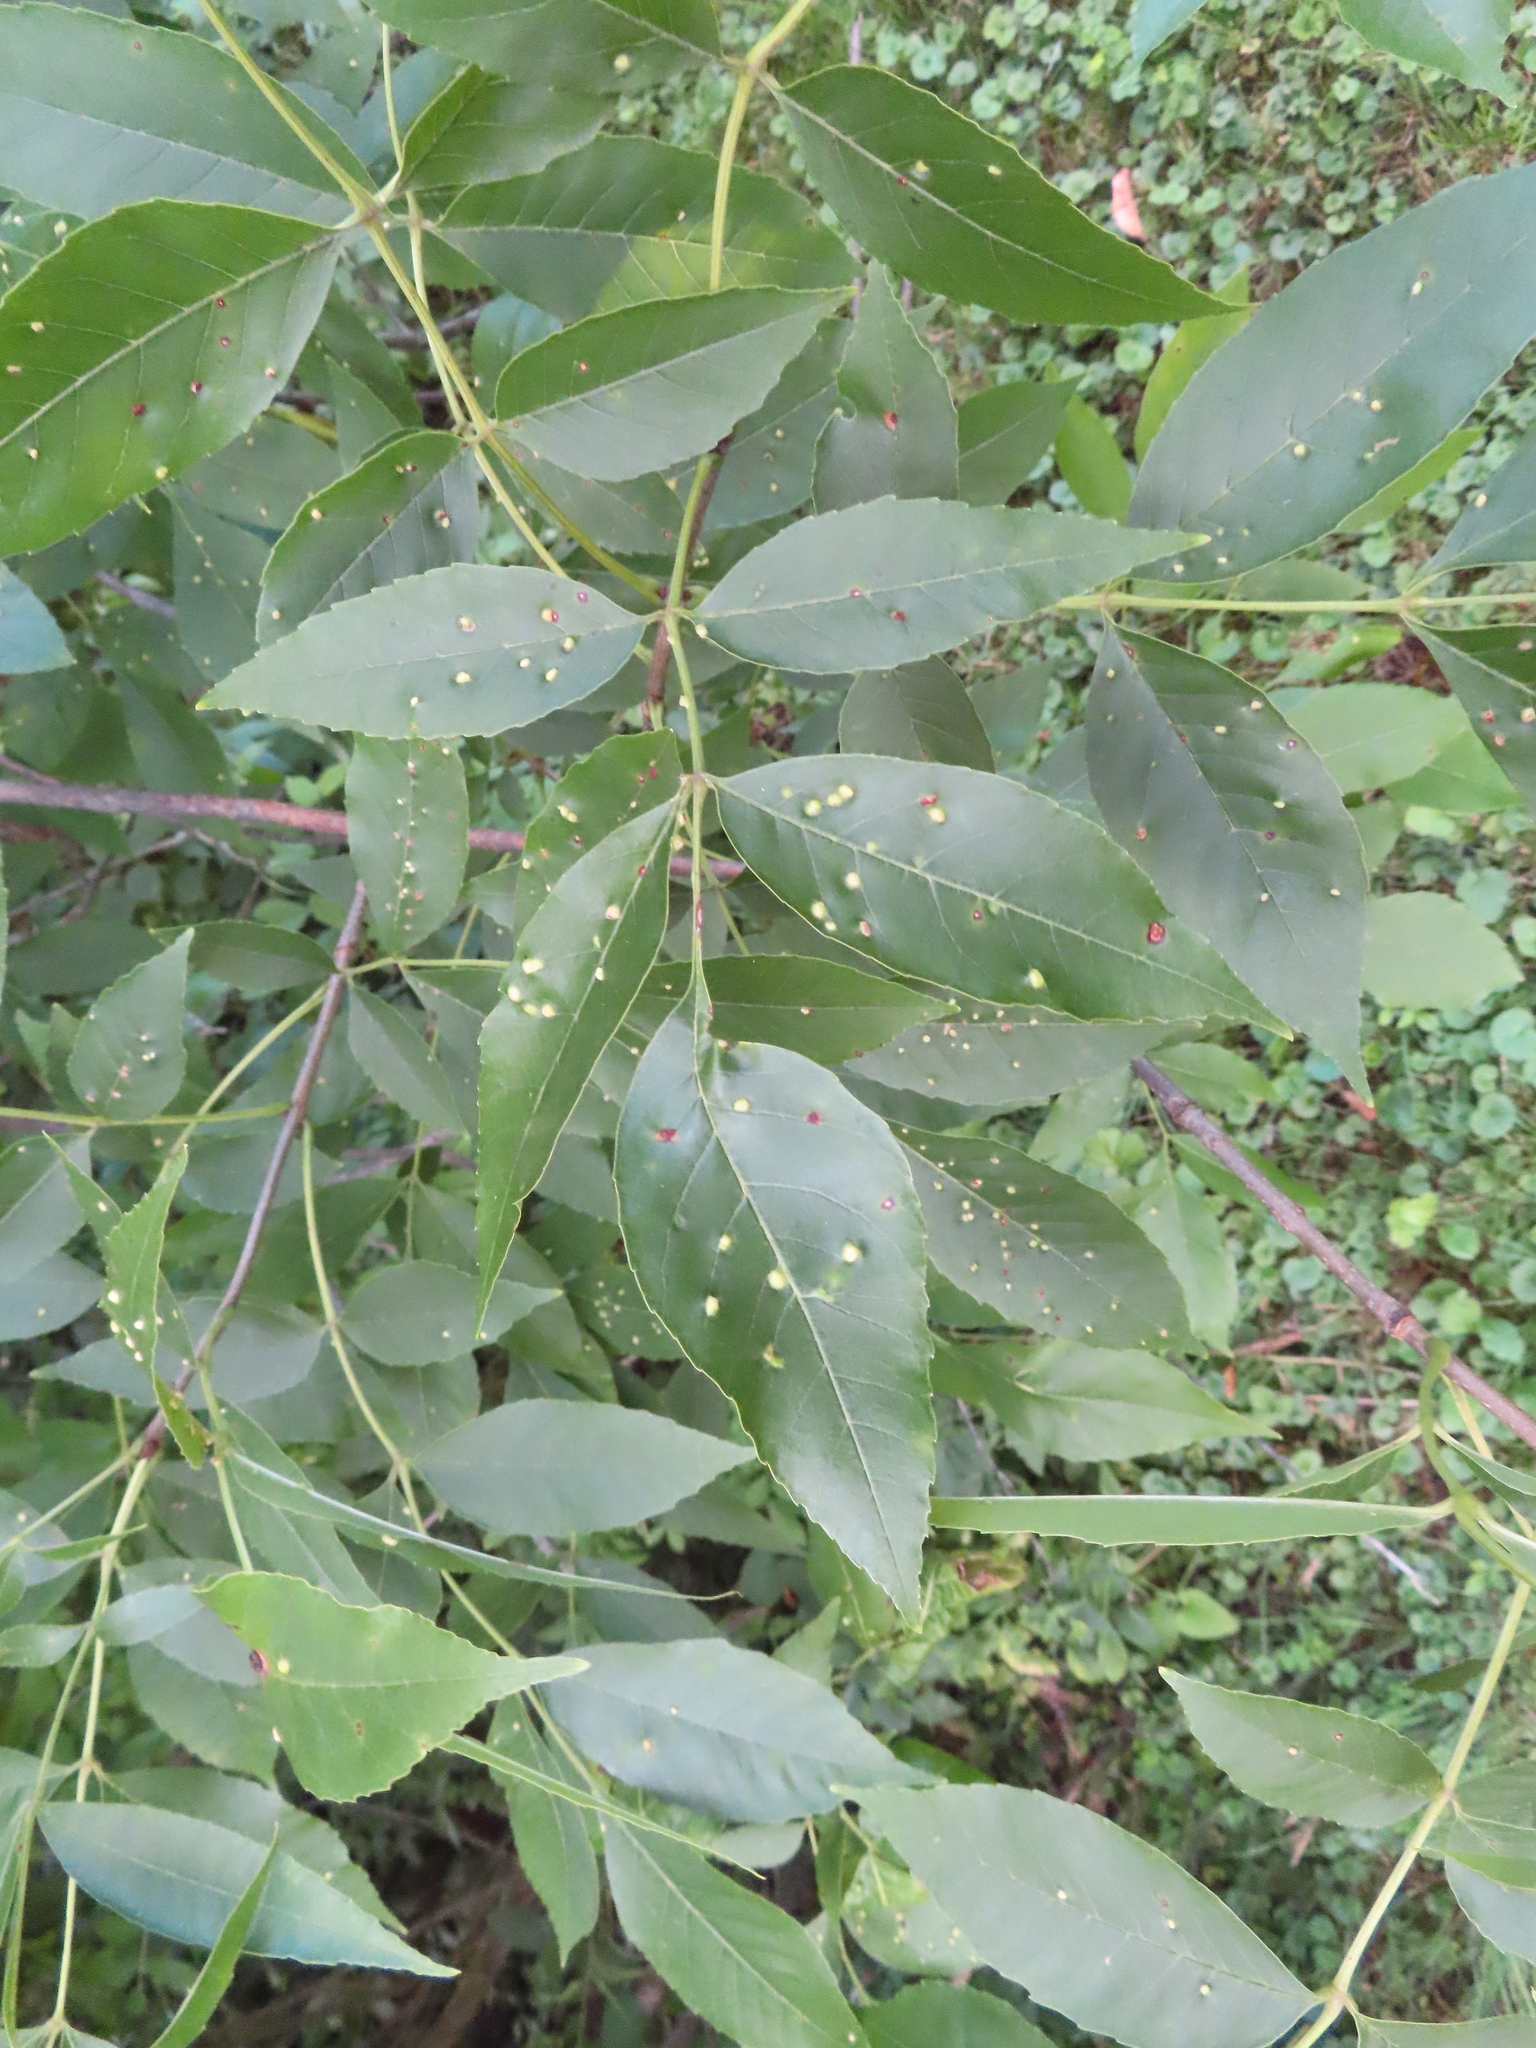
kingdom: Animalia
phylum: Arthropoda
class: Arachnida
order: Trombidiformes
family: Eriophyidae
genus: Aceria
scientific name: Aceria fraxinicola
